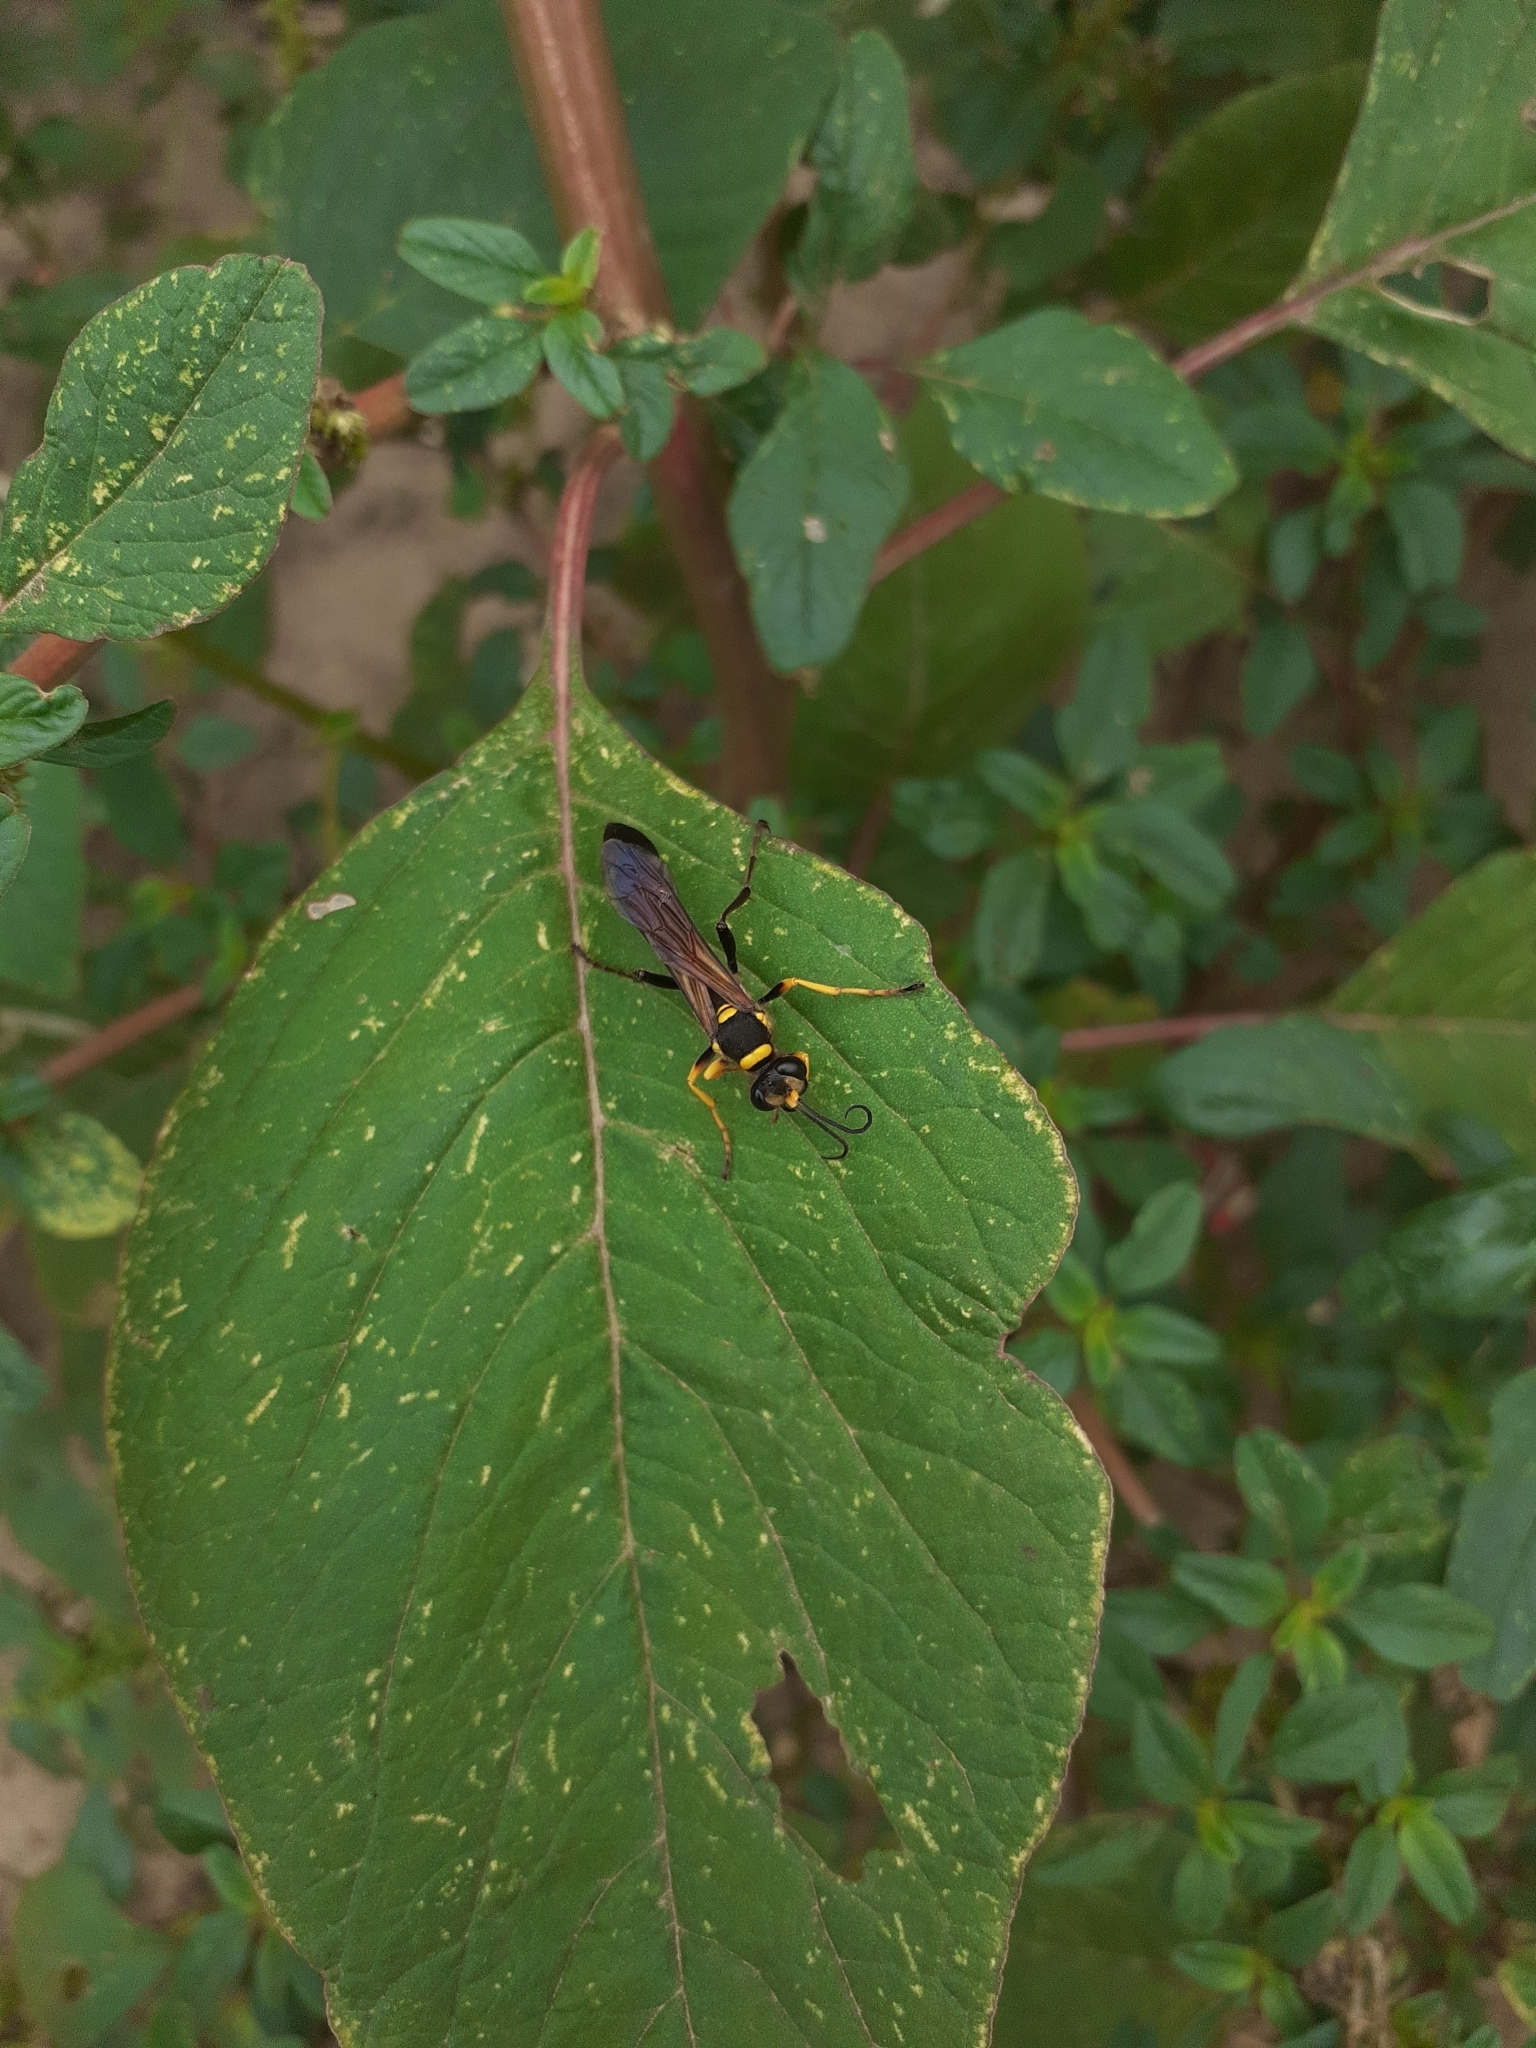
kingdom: Animalia
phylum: Arthropoda
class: Insecta
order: Hymenoptera
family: Sphecidae
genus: Sceliphron
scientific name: Sceliphron asiaticum
